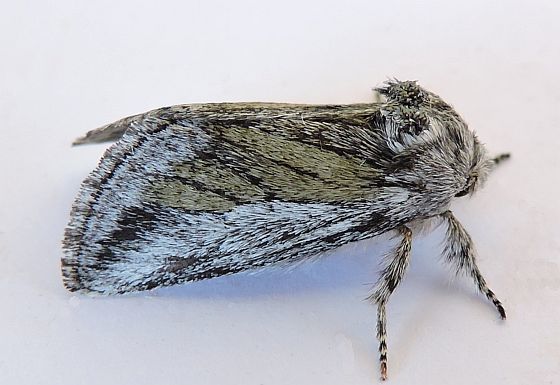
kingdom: Animalia
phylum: Arthropoda
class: Insecta
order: Lepidoptera
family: Notodontidae
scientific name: Notodontidae
